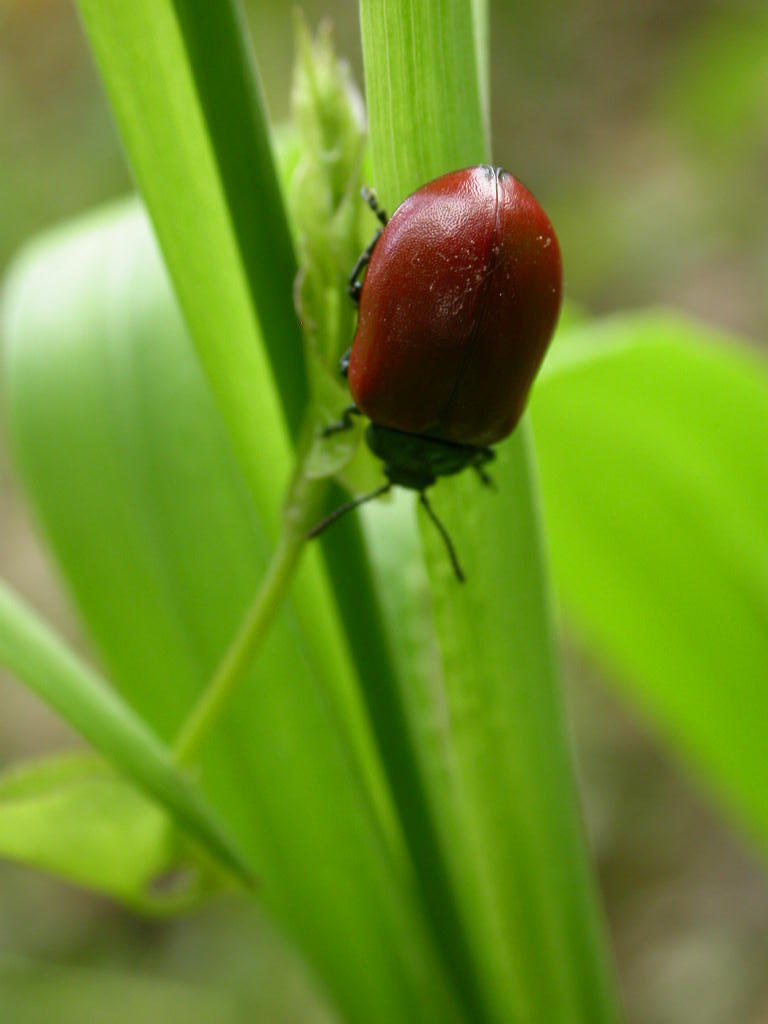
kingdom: Animalia
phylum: Arthropoda
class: Insecta
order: Coleoptera
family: Chrysomelidae
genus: Chrysomela
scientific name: Chrysomela populi
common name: Red poplar leaf beetle
